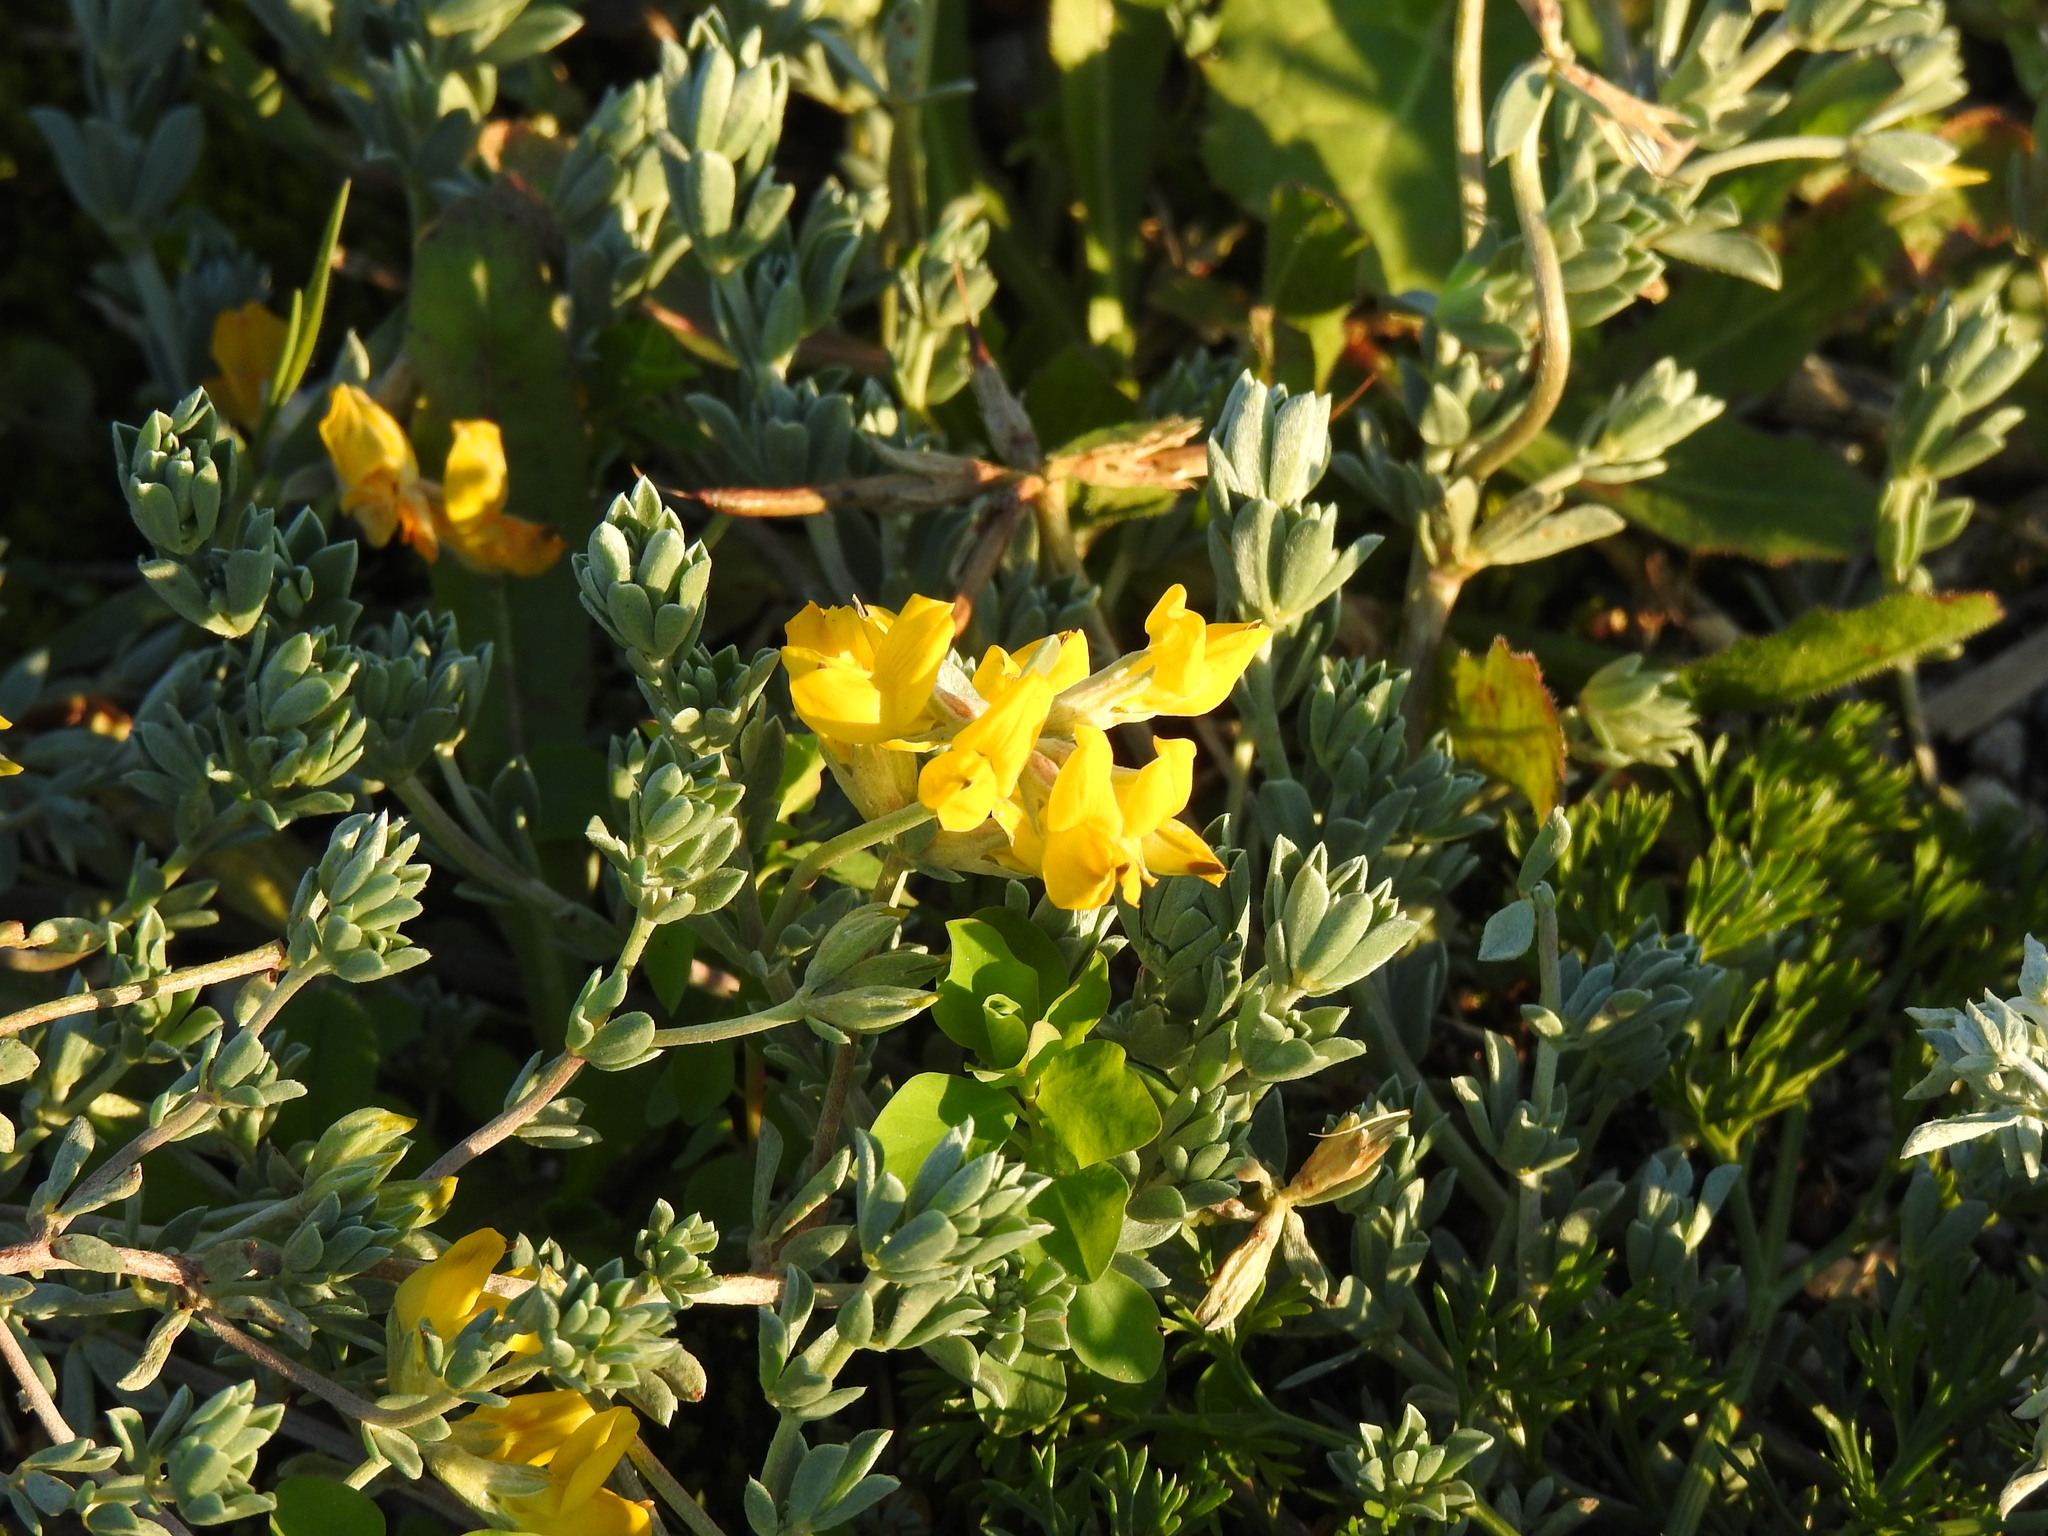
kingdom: Plantae
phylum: Tracheophyta
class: Magnoliopsida
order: Fabales
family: Fabaceae
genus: Lotus
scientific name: Lotus creticus
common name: Cretan bird's-foot trefoil
